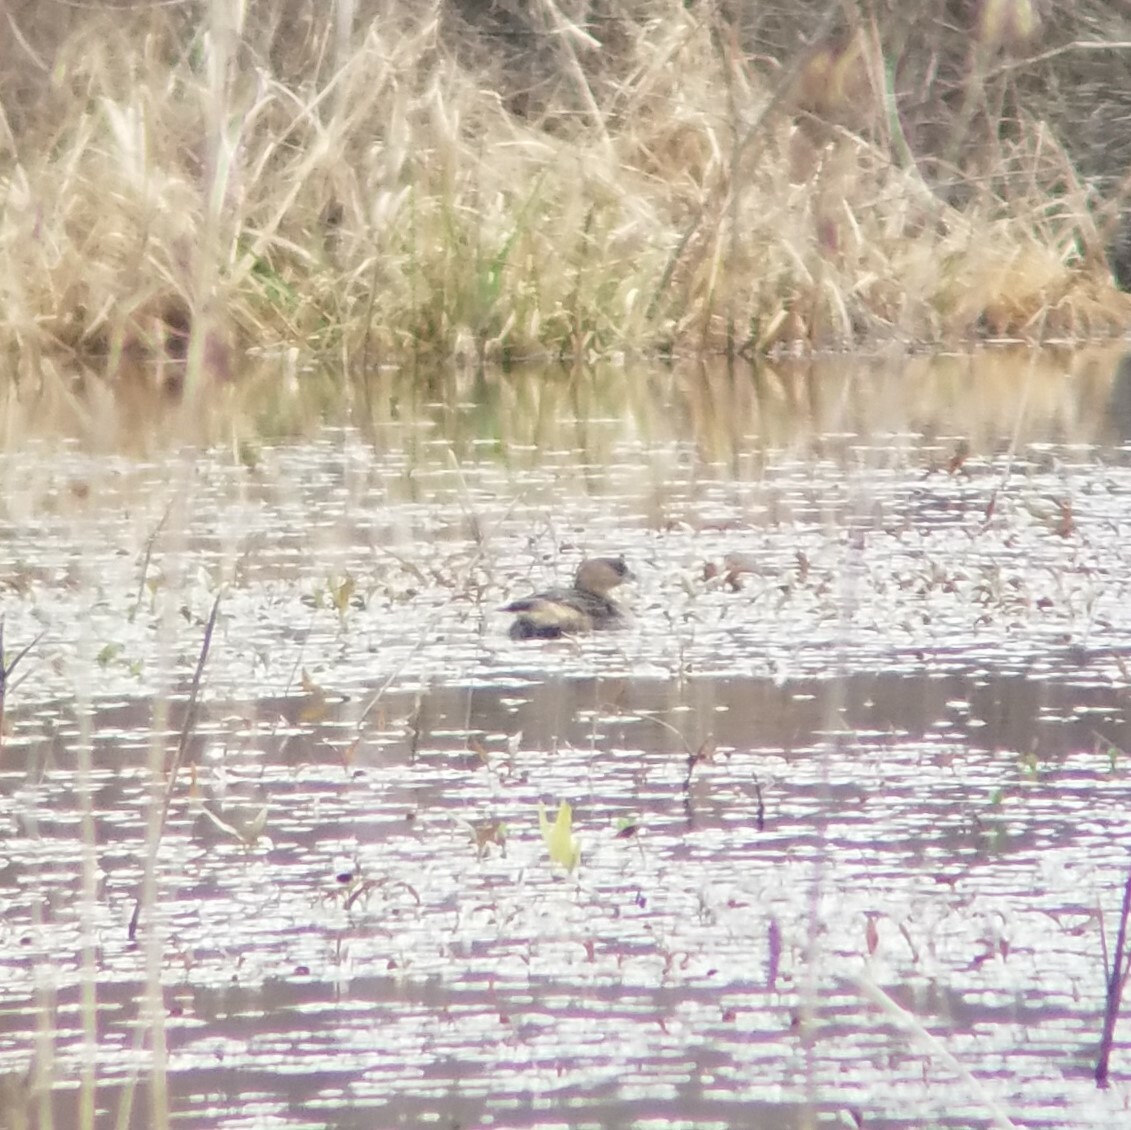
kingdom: Animalia
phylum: Chordata
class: Aves
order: Podicipediformes
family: Podicipedidae
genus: Podilymbus
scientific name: Podilymbus podiceps
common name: Pied-billed grebe
